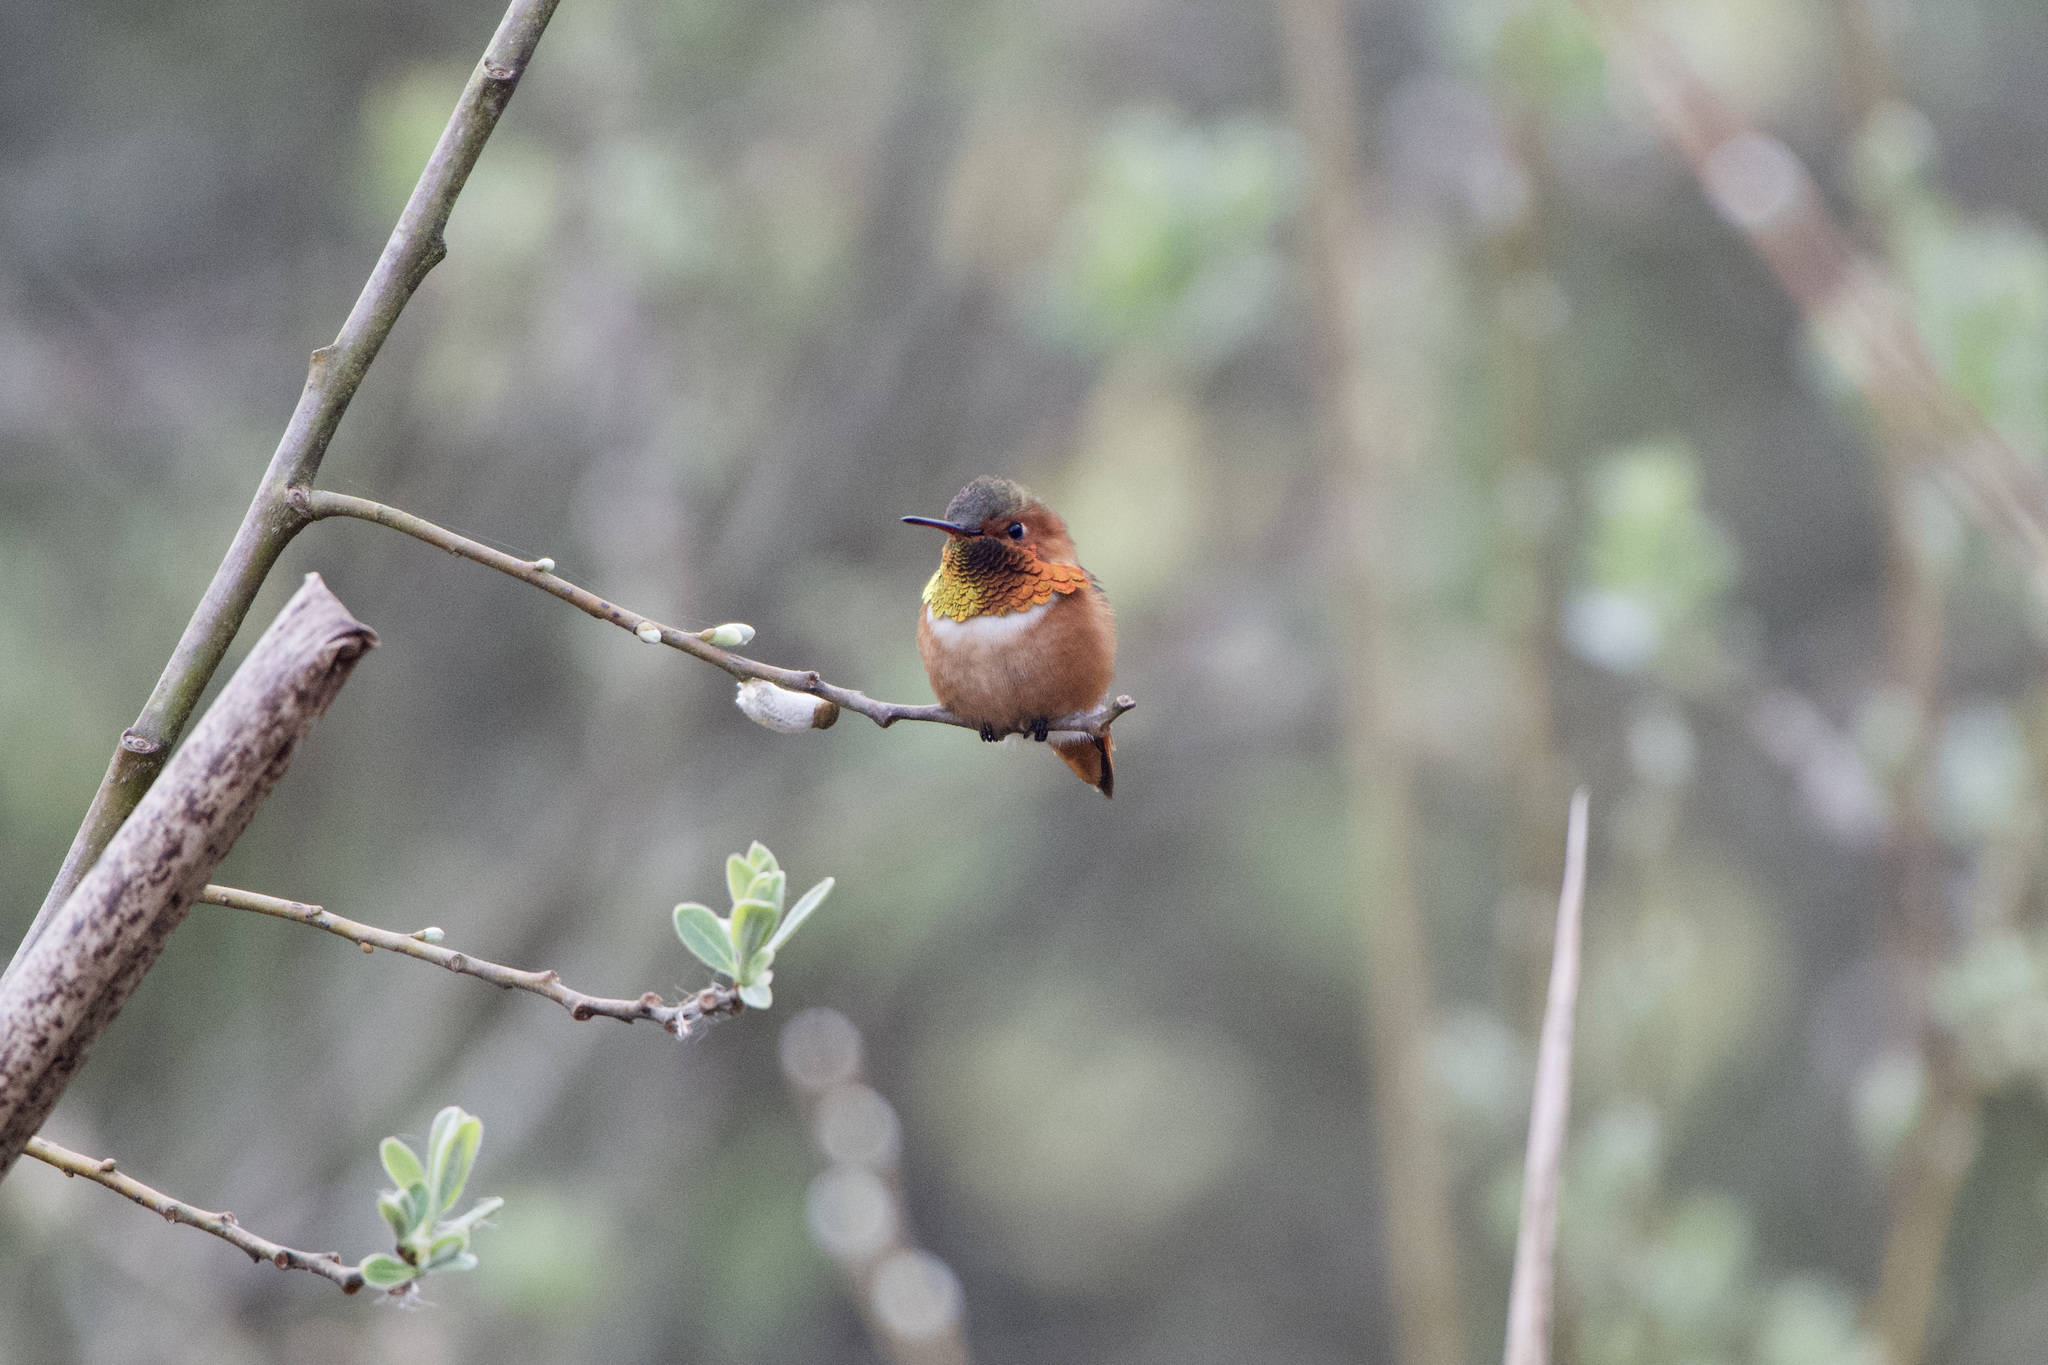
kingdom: Animalia
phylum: Chordata
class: Aves
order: Apodiformes
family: Trochilidae
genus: Selasphorus
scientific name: Selasphorus sasin
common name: Allen's hummingbird
